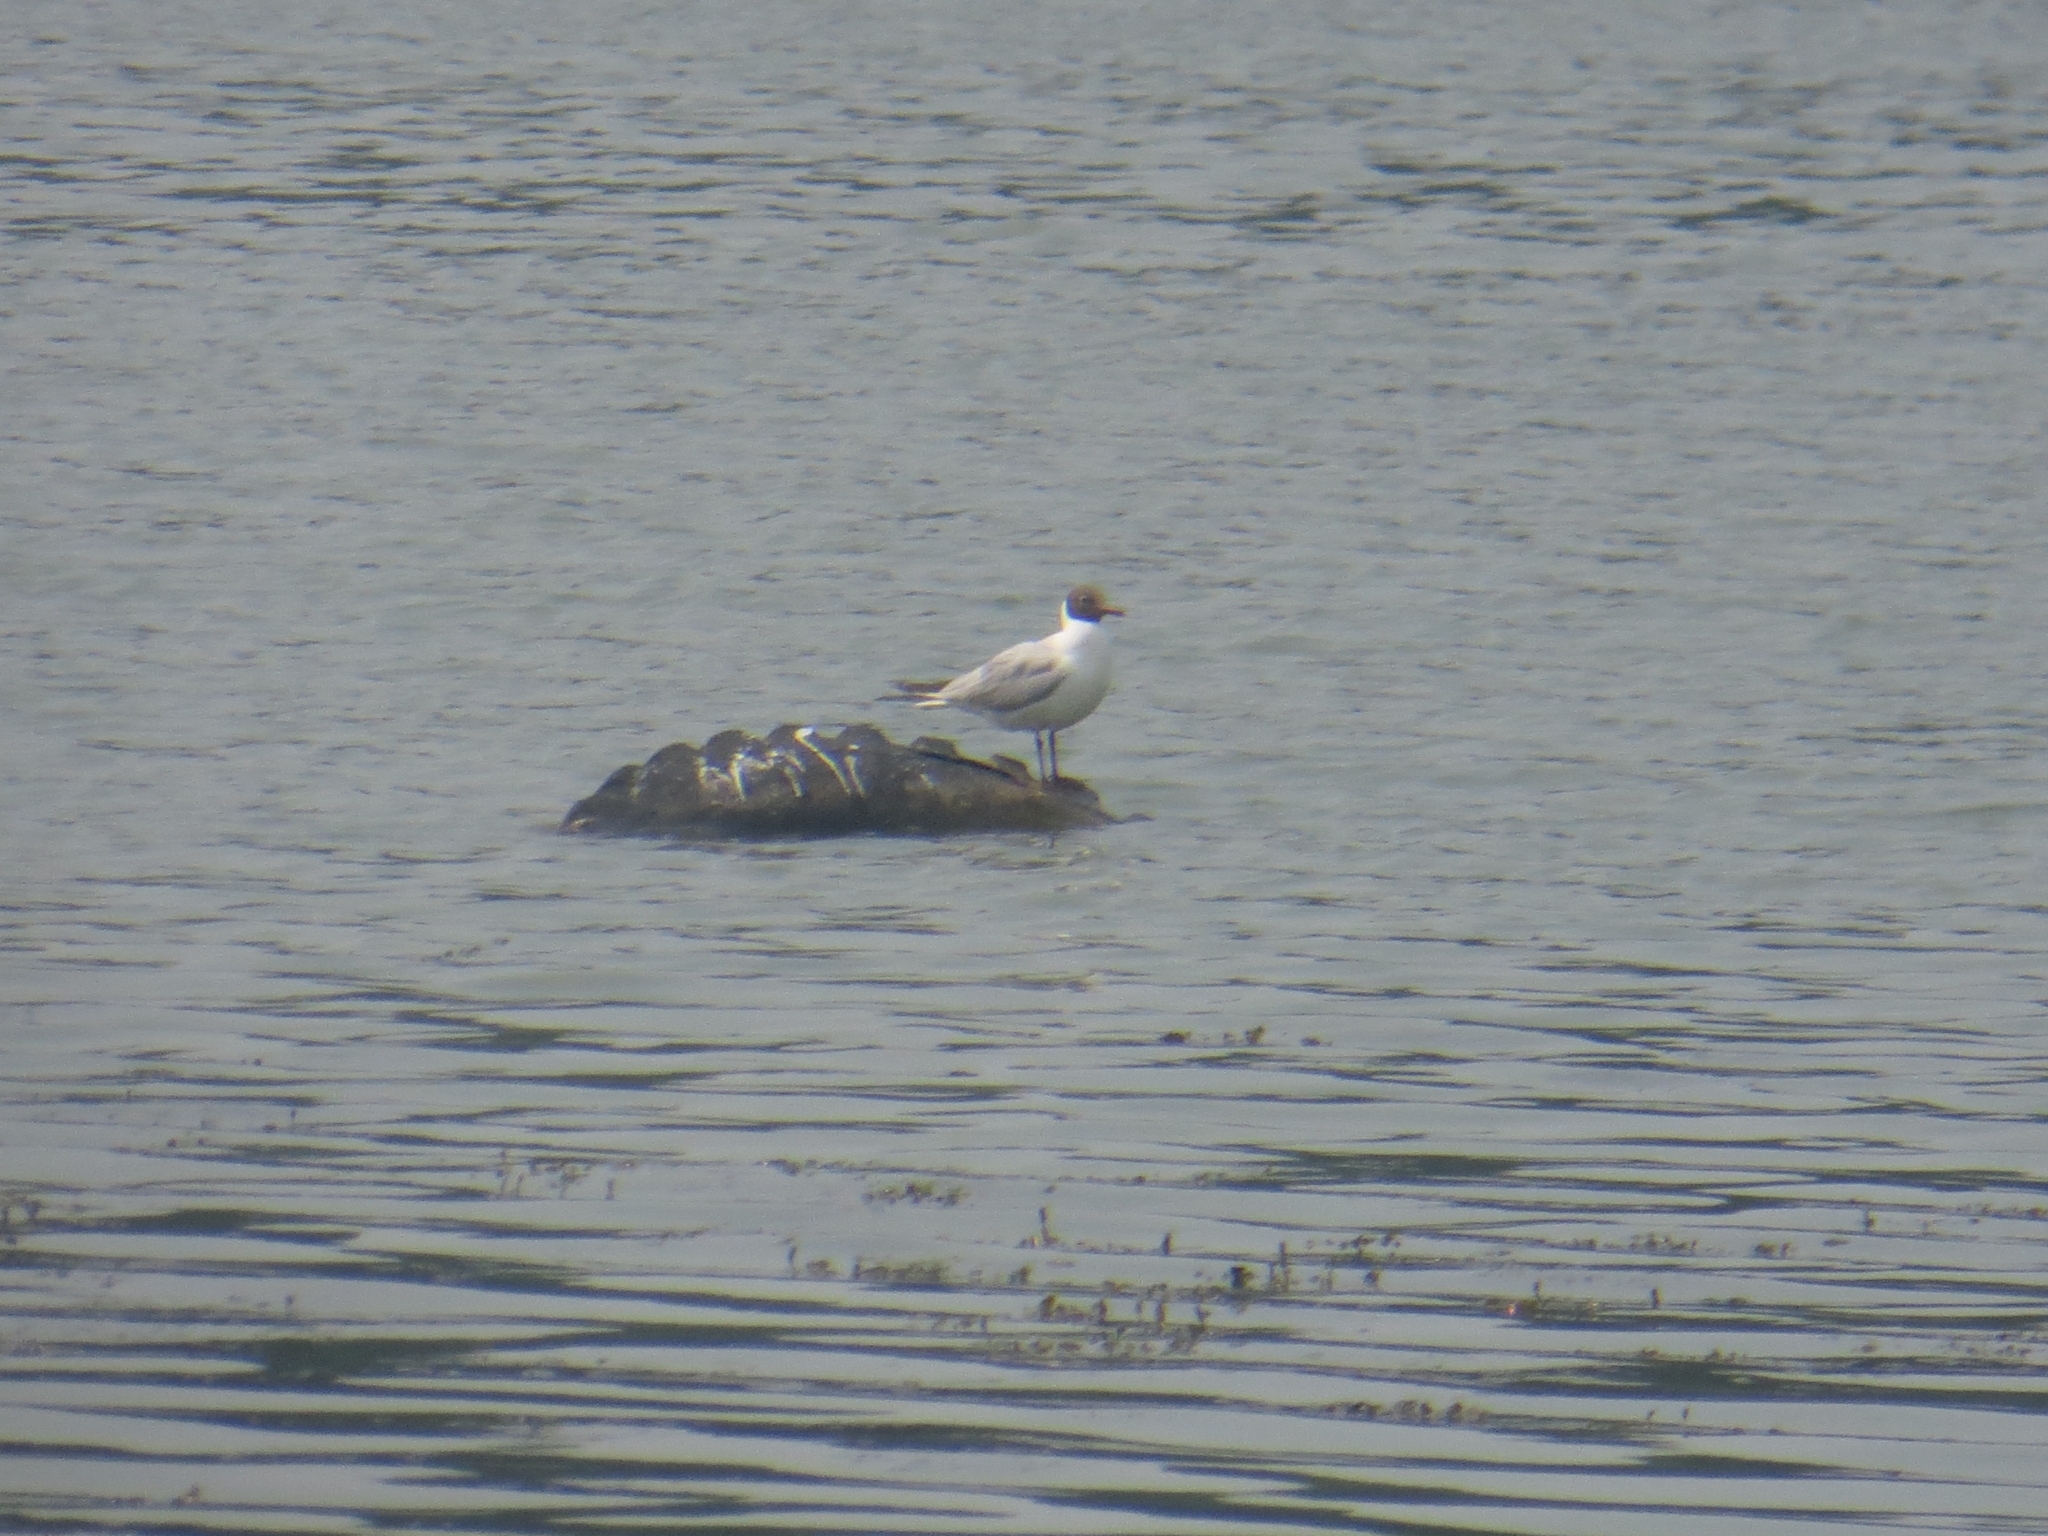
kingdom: Animalia
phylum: Chordata
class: Aves
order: Charadriiformes
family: Laridae
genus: Chroicocephalus
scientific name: Chroicocephalus ridibundus
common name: Black-headed gull
